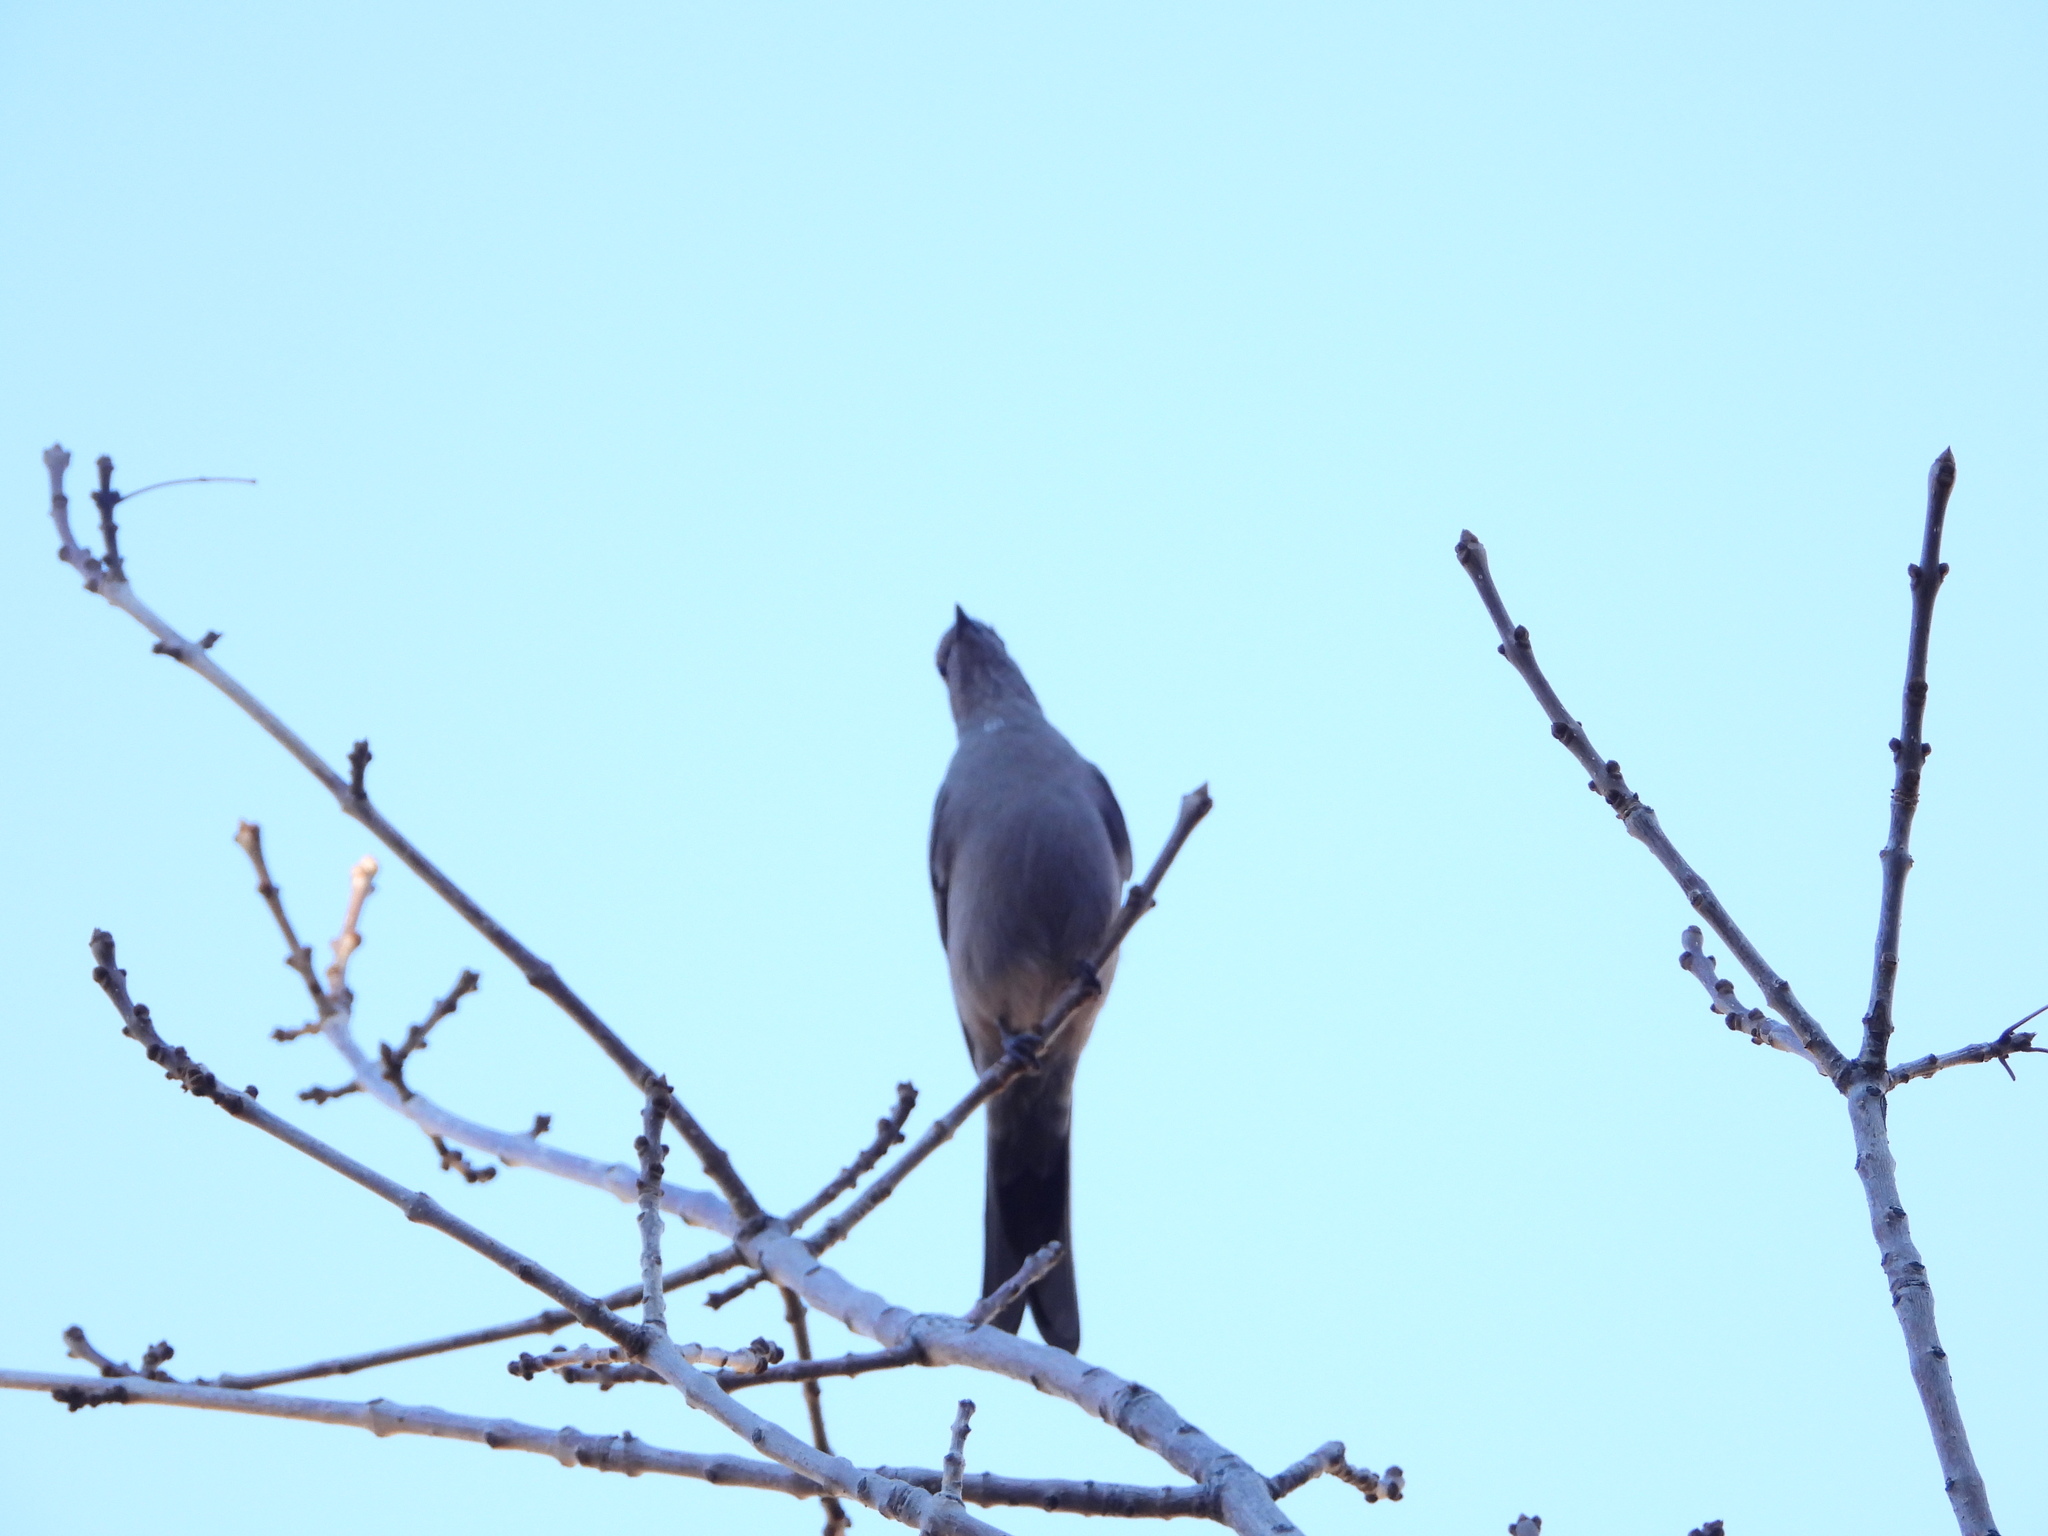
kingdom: Animalia
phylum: Chordata
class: Aves
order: Passeriformes
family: Turdidae
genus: Myadestes
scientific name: Myadestes townsendi
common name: Townsend's solitaire
